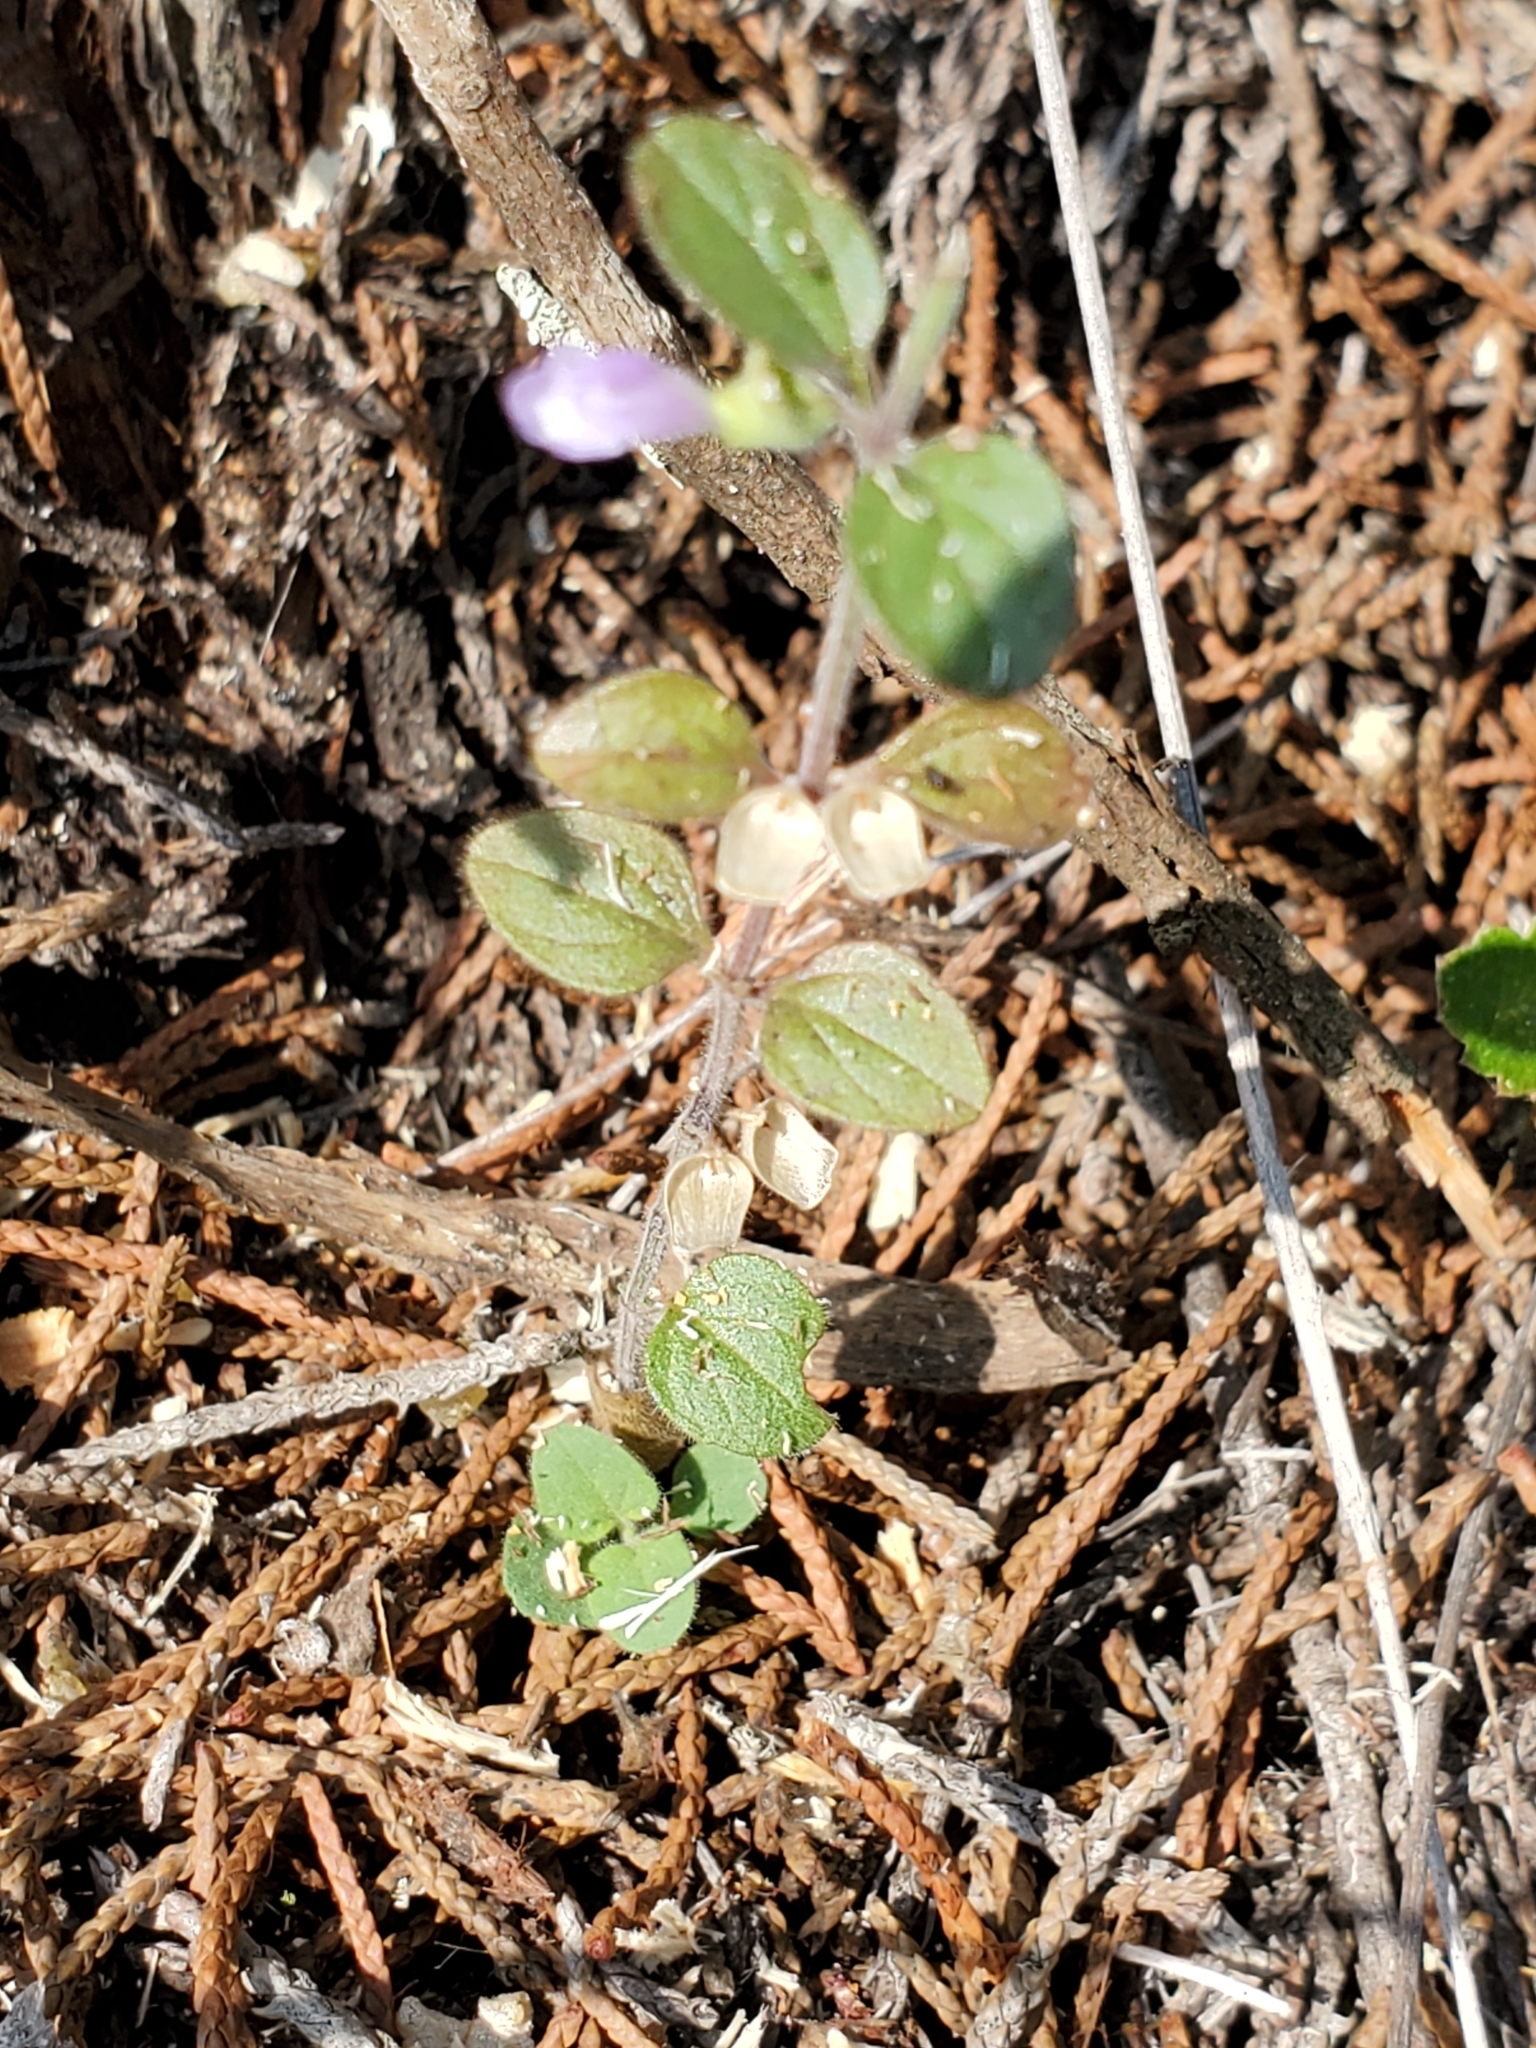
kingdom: Plantae
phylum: Tracheophyta
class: Magnoliopsida
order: Lamiales
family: Lamiaceae
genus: Scutellaria
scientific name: Scutellaria drummondii
